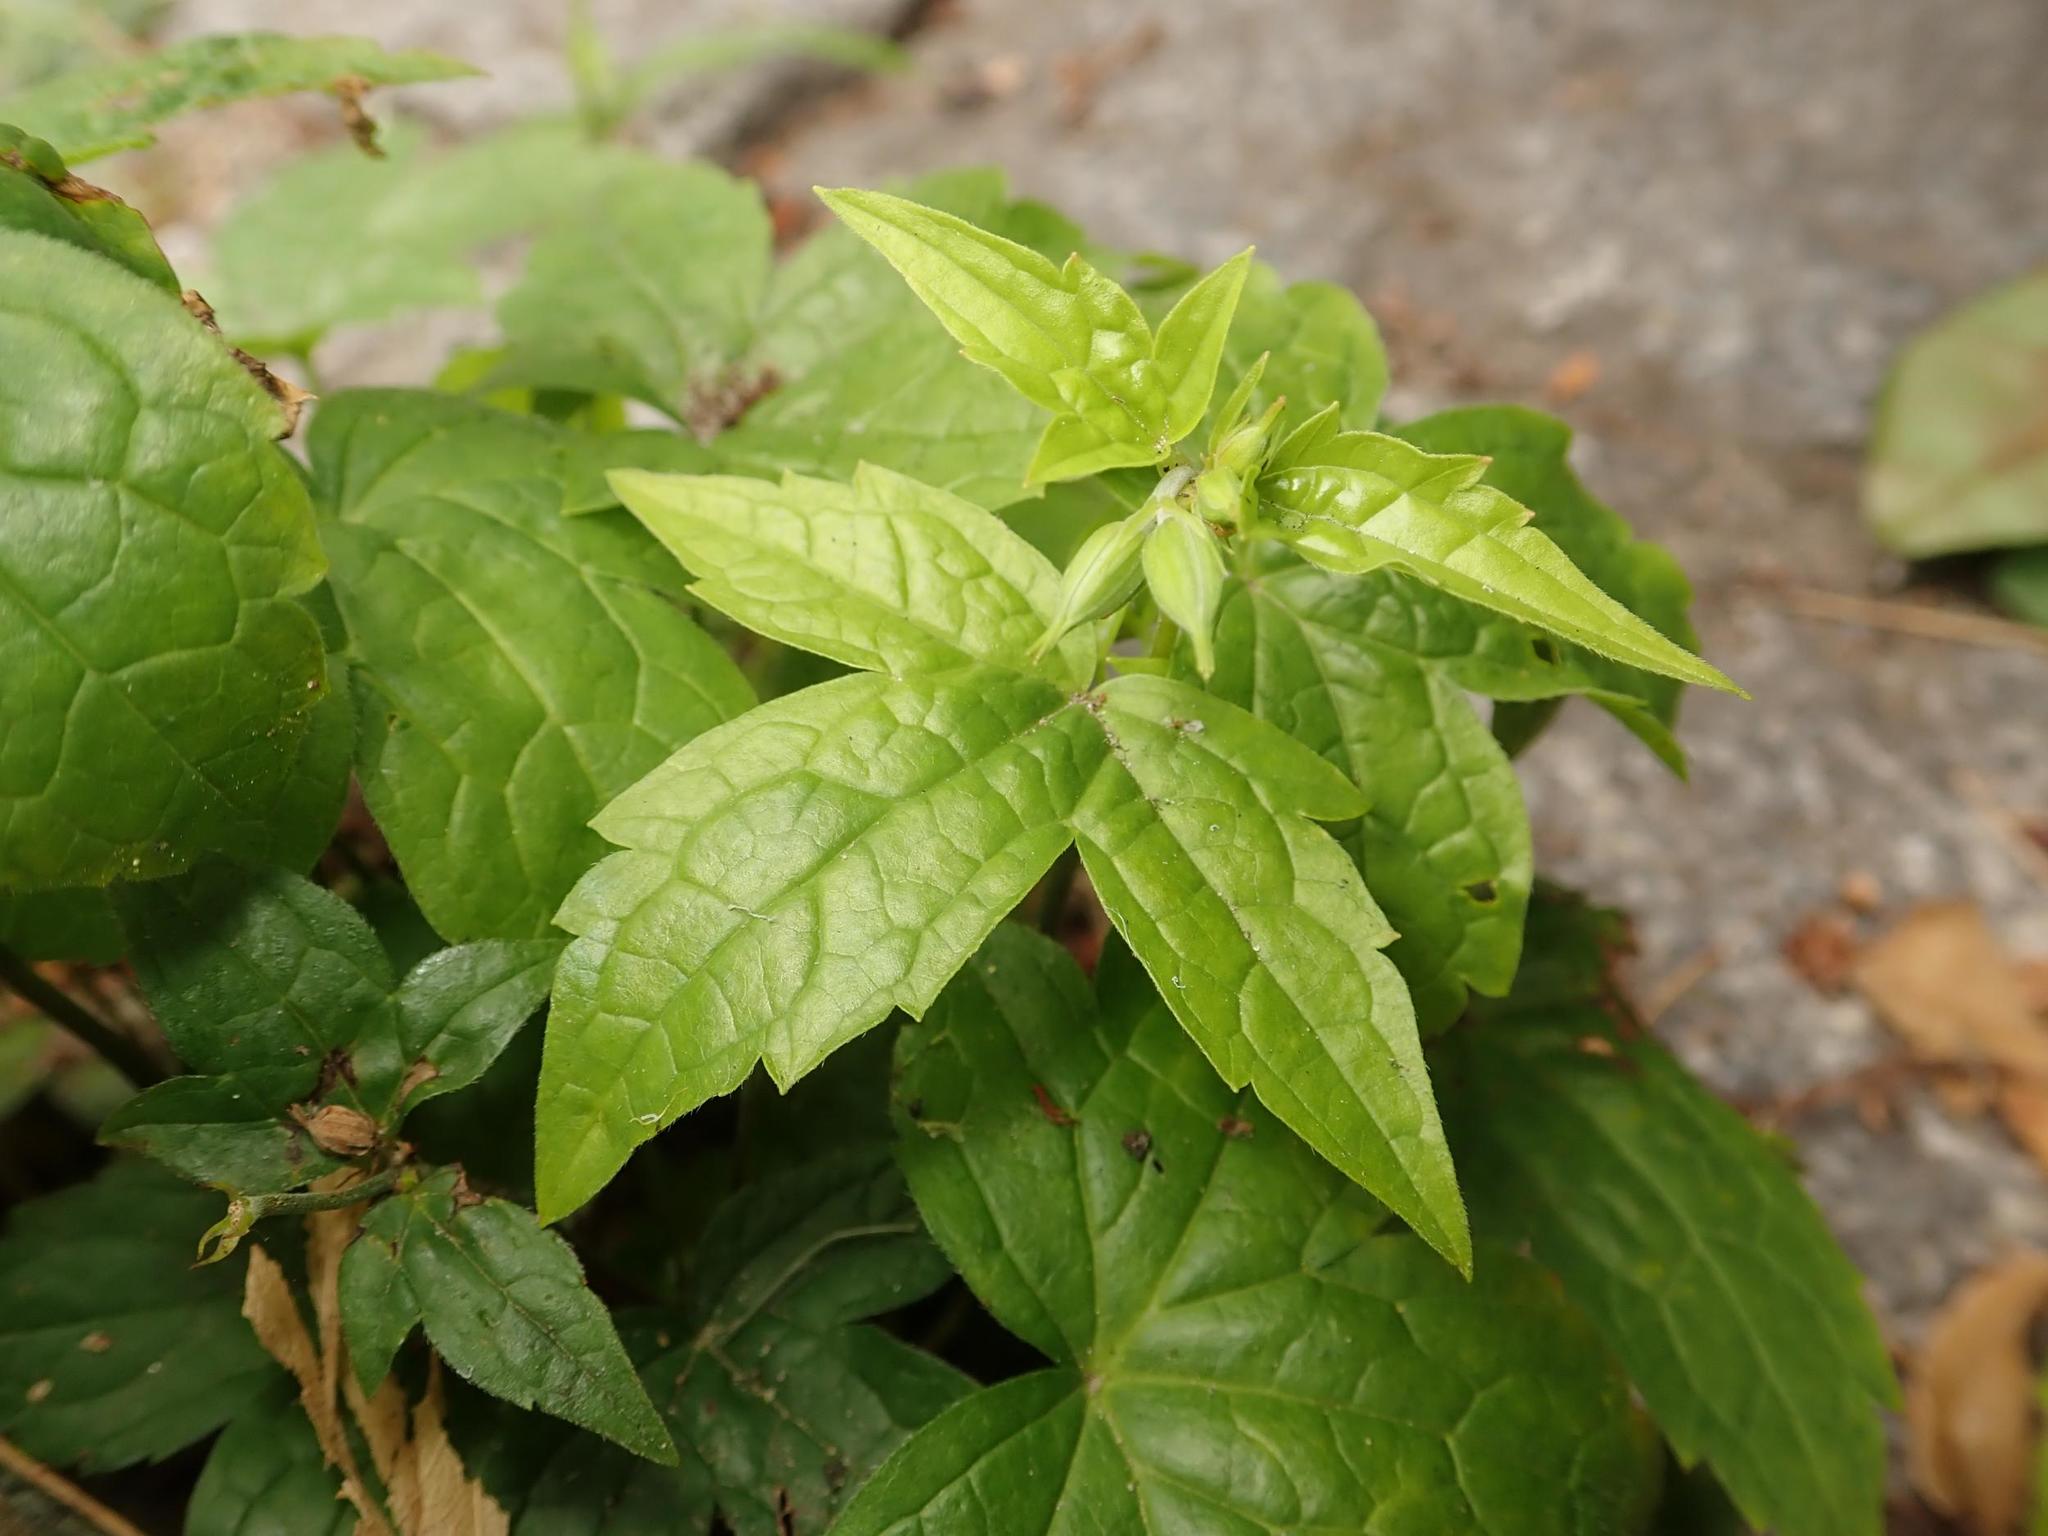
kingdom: Plantae
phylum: Tracheophyta
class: Magnoliopsida
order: Geraniales
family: Geraniaceae
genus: Geranium
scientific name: Geranium nodosum
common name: Knotted crane's-bill
